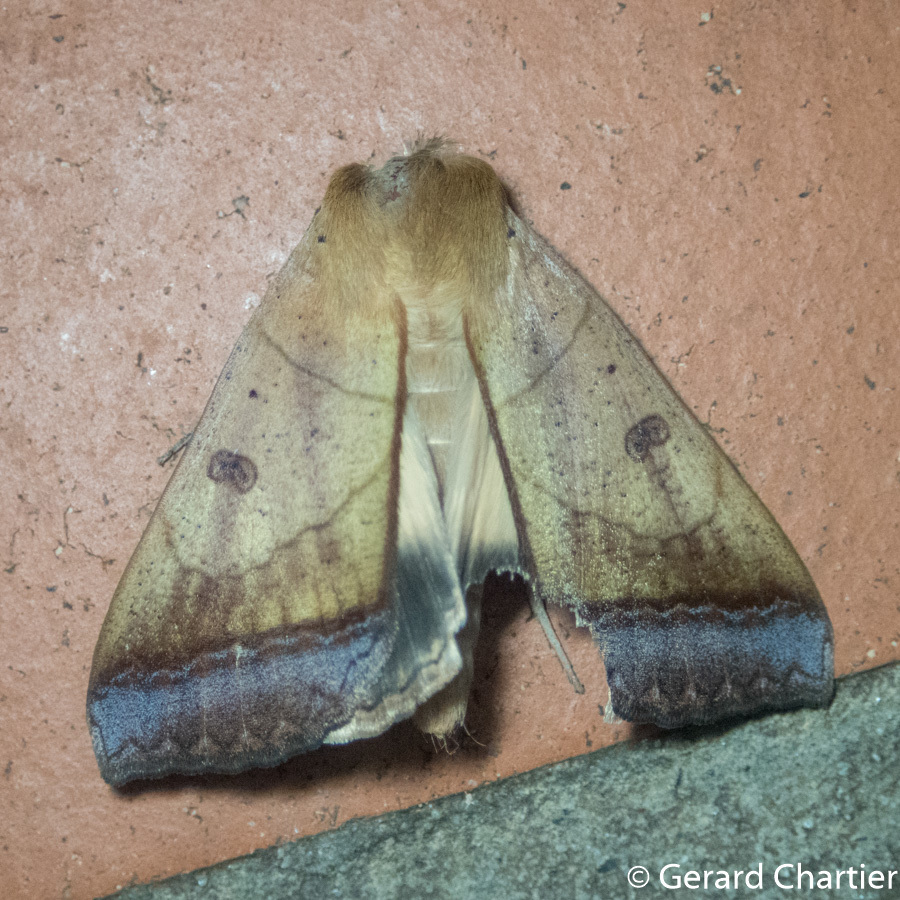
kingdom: Animalia
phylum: Arthropoda
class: Insecta
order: Lepidoptera
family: Erebidae
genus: Ophiusa
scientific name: Ophiusa trapezium
